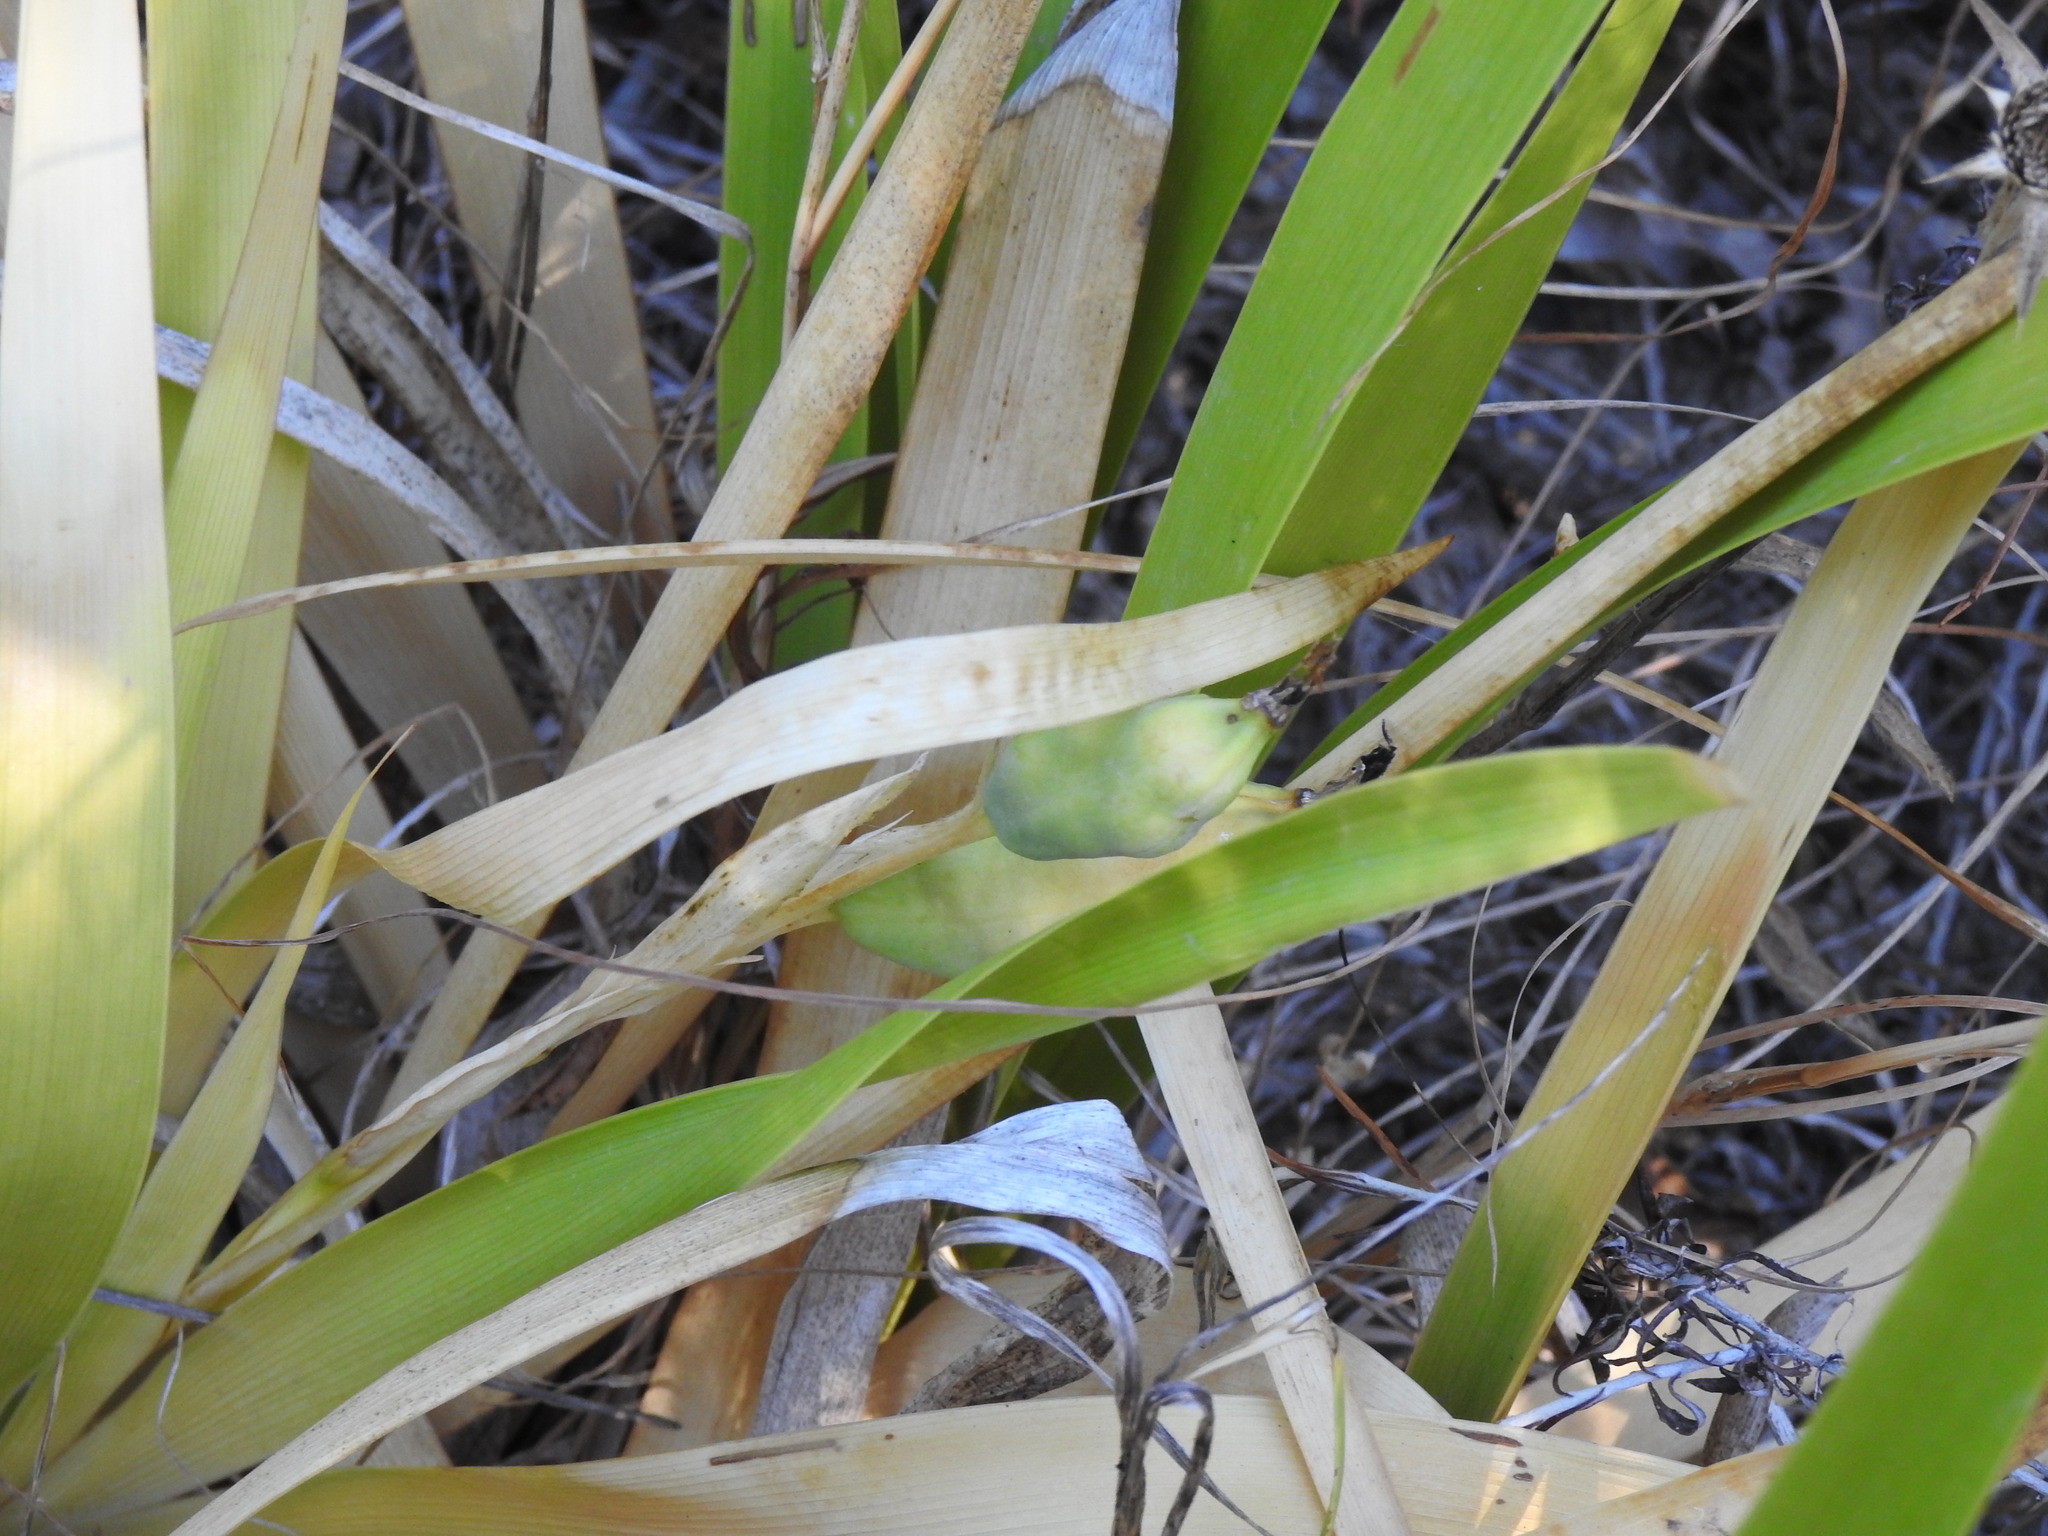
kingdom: Plantae
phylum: Tracheophyta
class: Liliopsida
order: Asparagales
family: Iridaceae
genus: Iris
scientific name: Iris foetidissima
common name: Stinking iris
